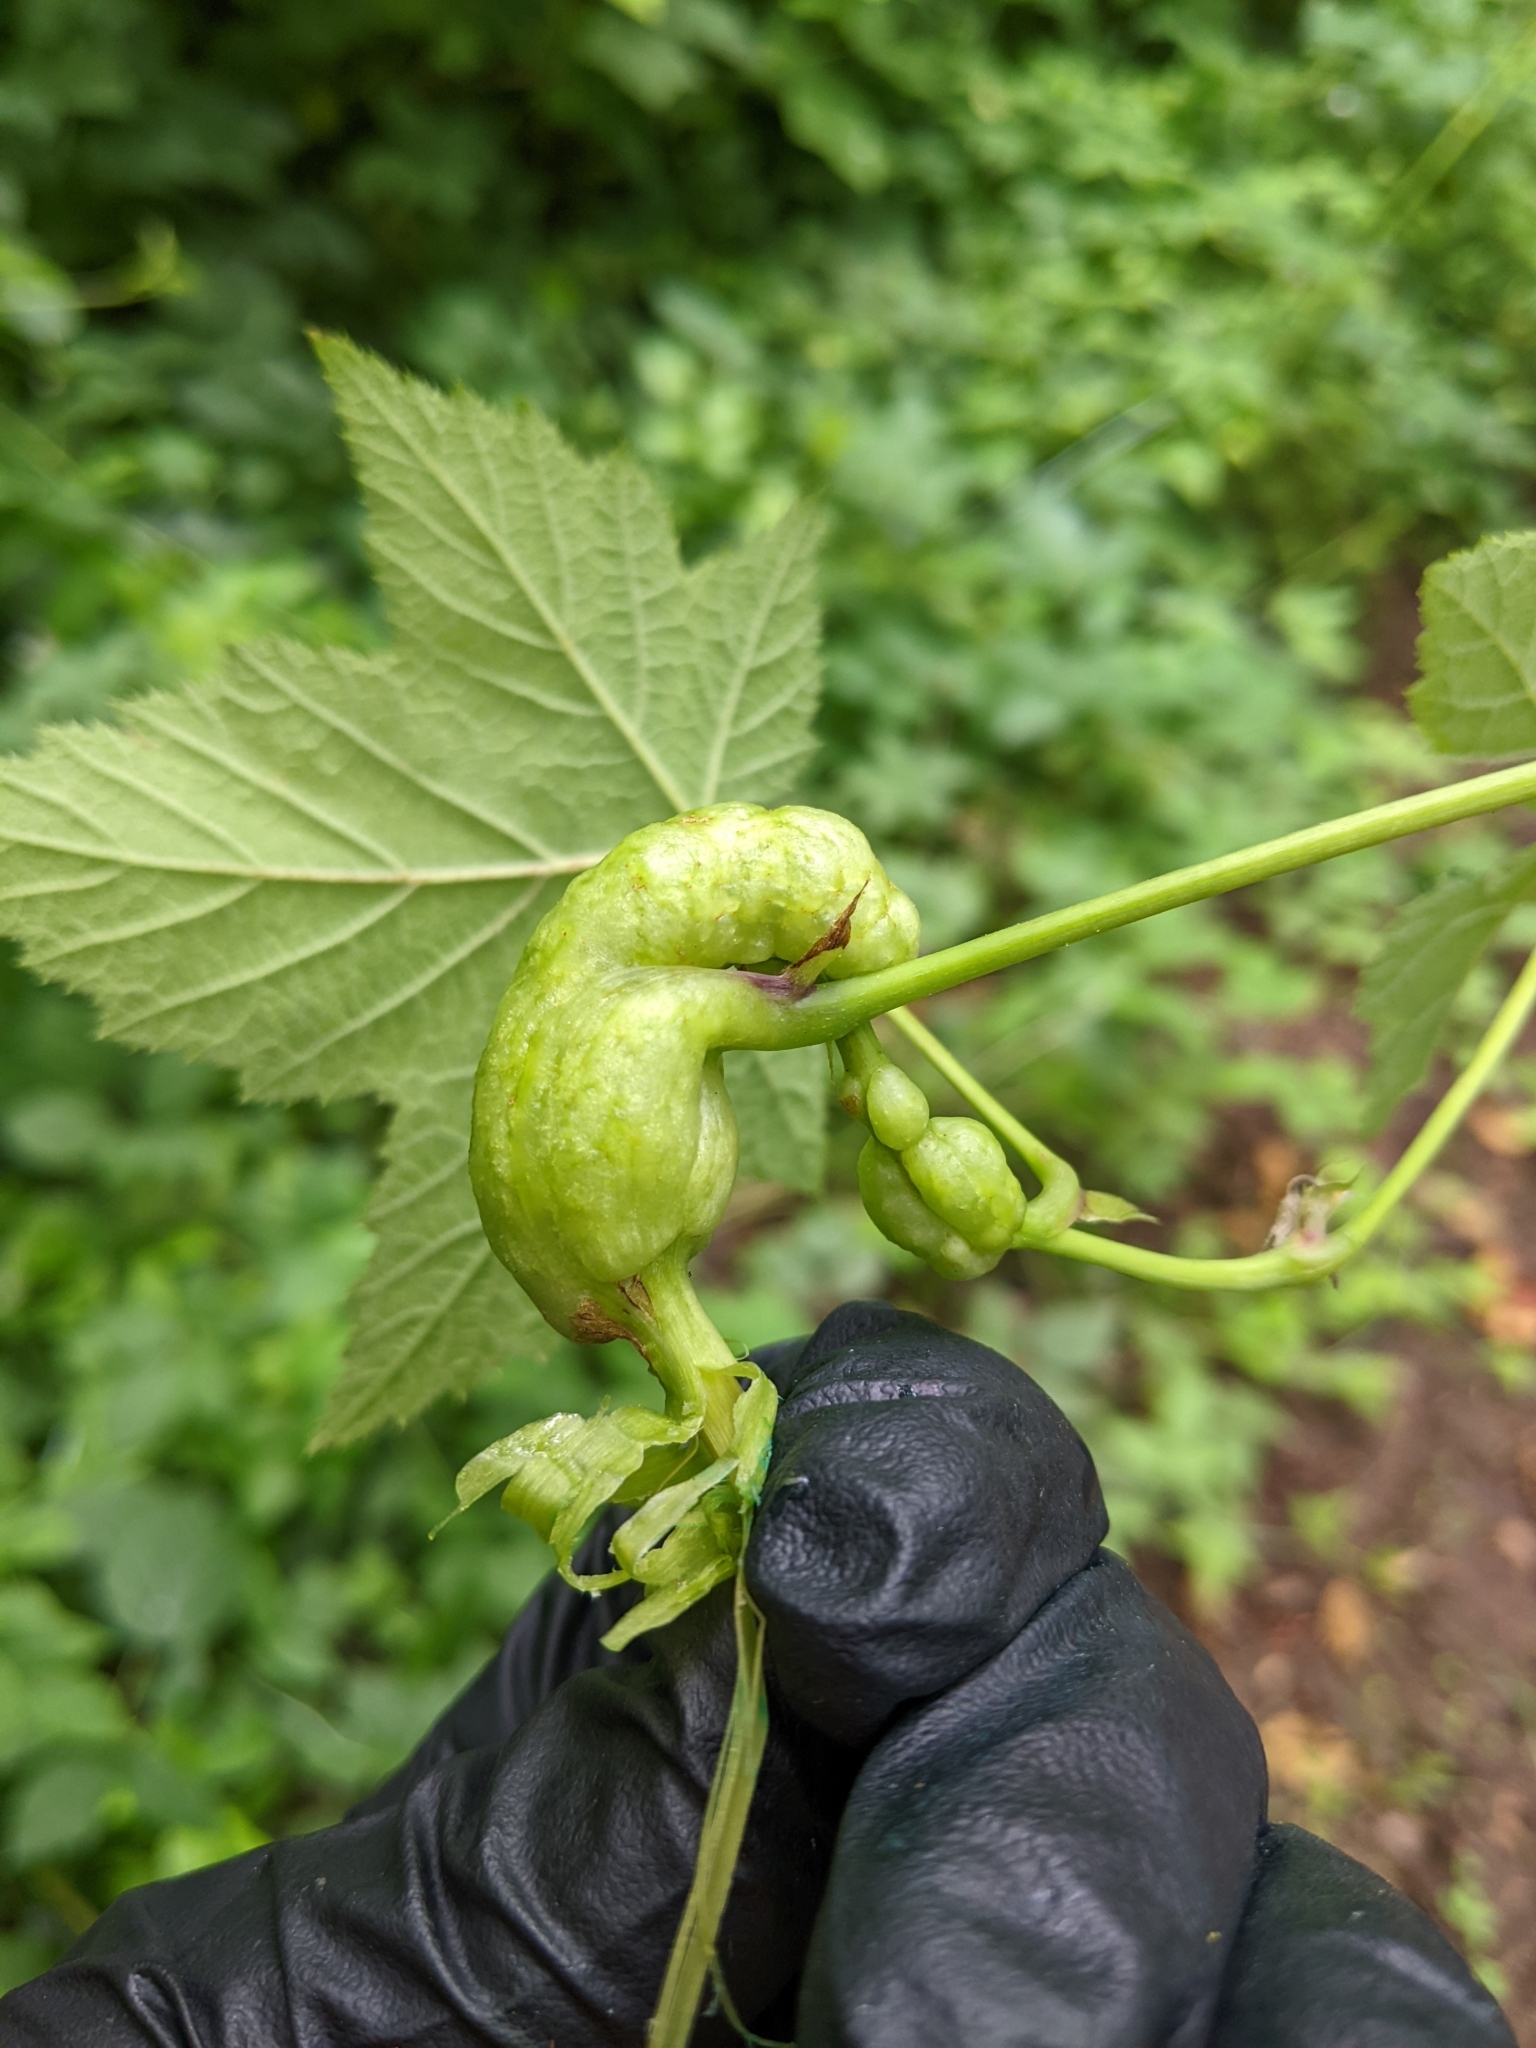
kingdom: Animalia
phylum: Arthropoda
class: Insecta
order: Hymenoptera
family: Cynipidae
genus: Diastrophus
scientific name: Diastrophus
